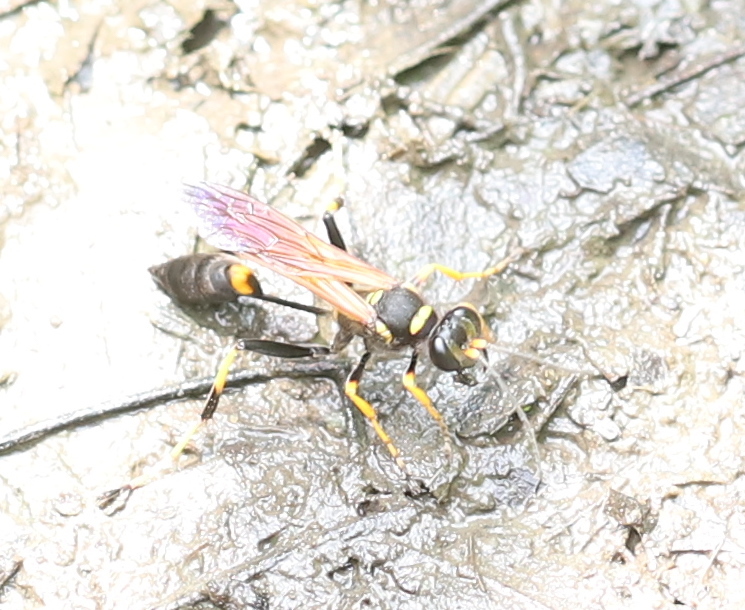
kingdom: Animalia
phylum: Arthropoda
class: Insecta
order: Hymenoptera
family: Sphecidae
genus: Sceliphron
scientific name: Sceliphron caementarium
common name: Mud dauber
